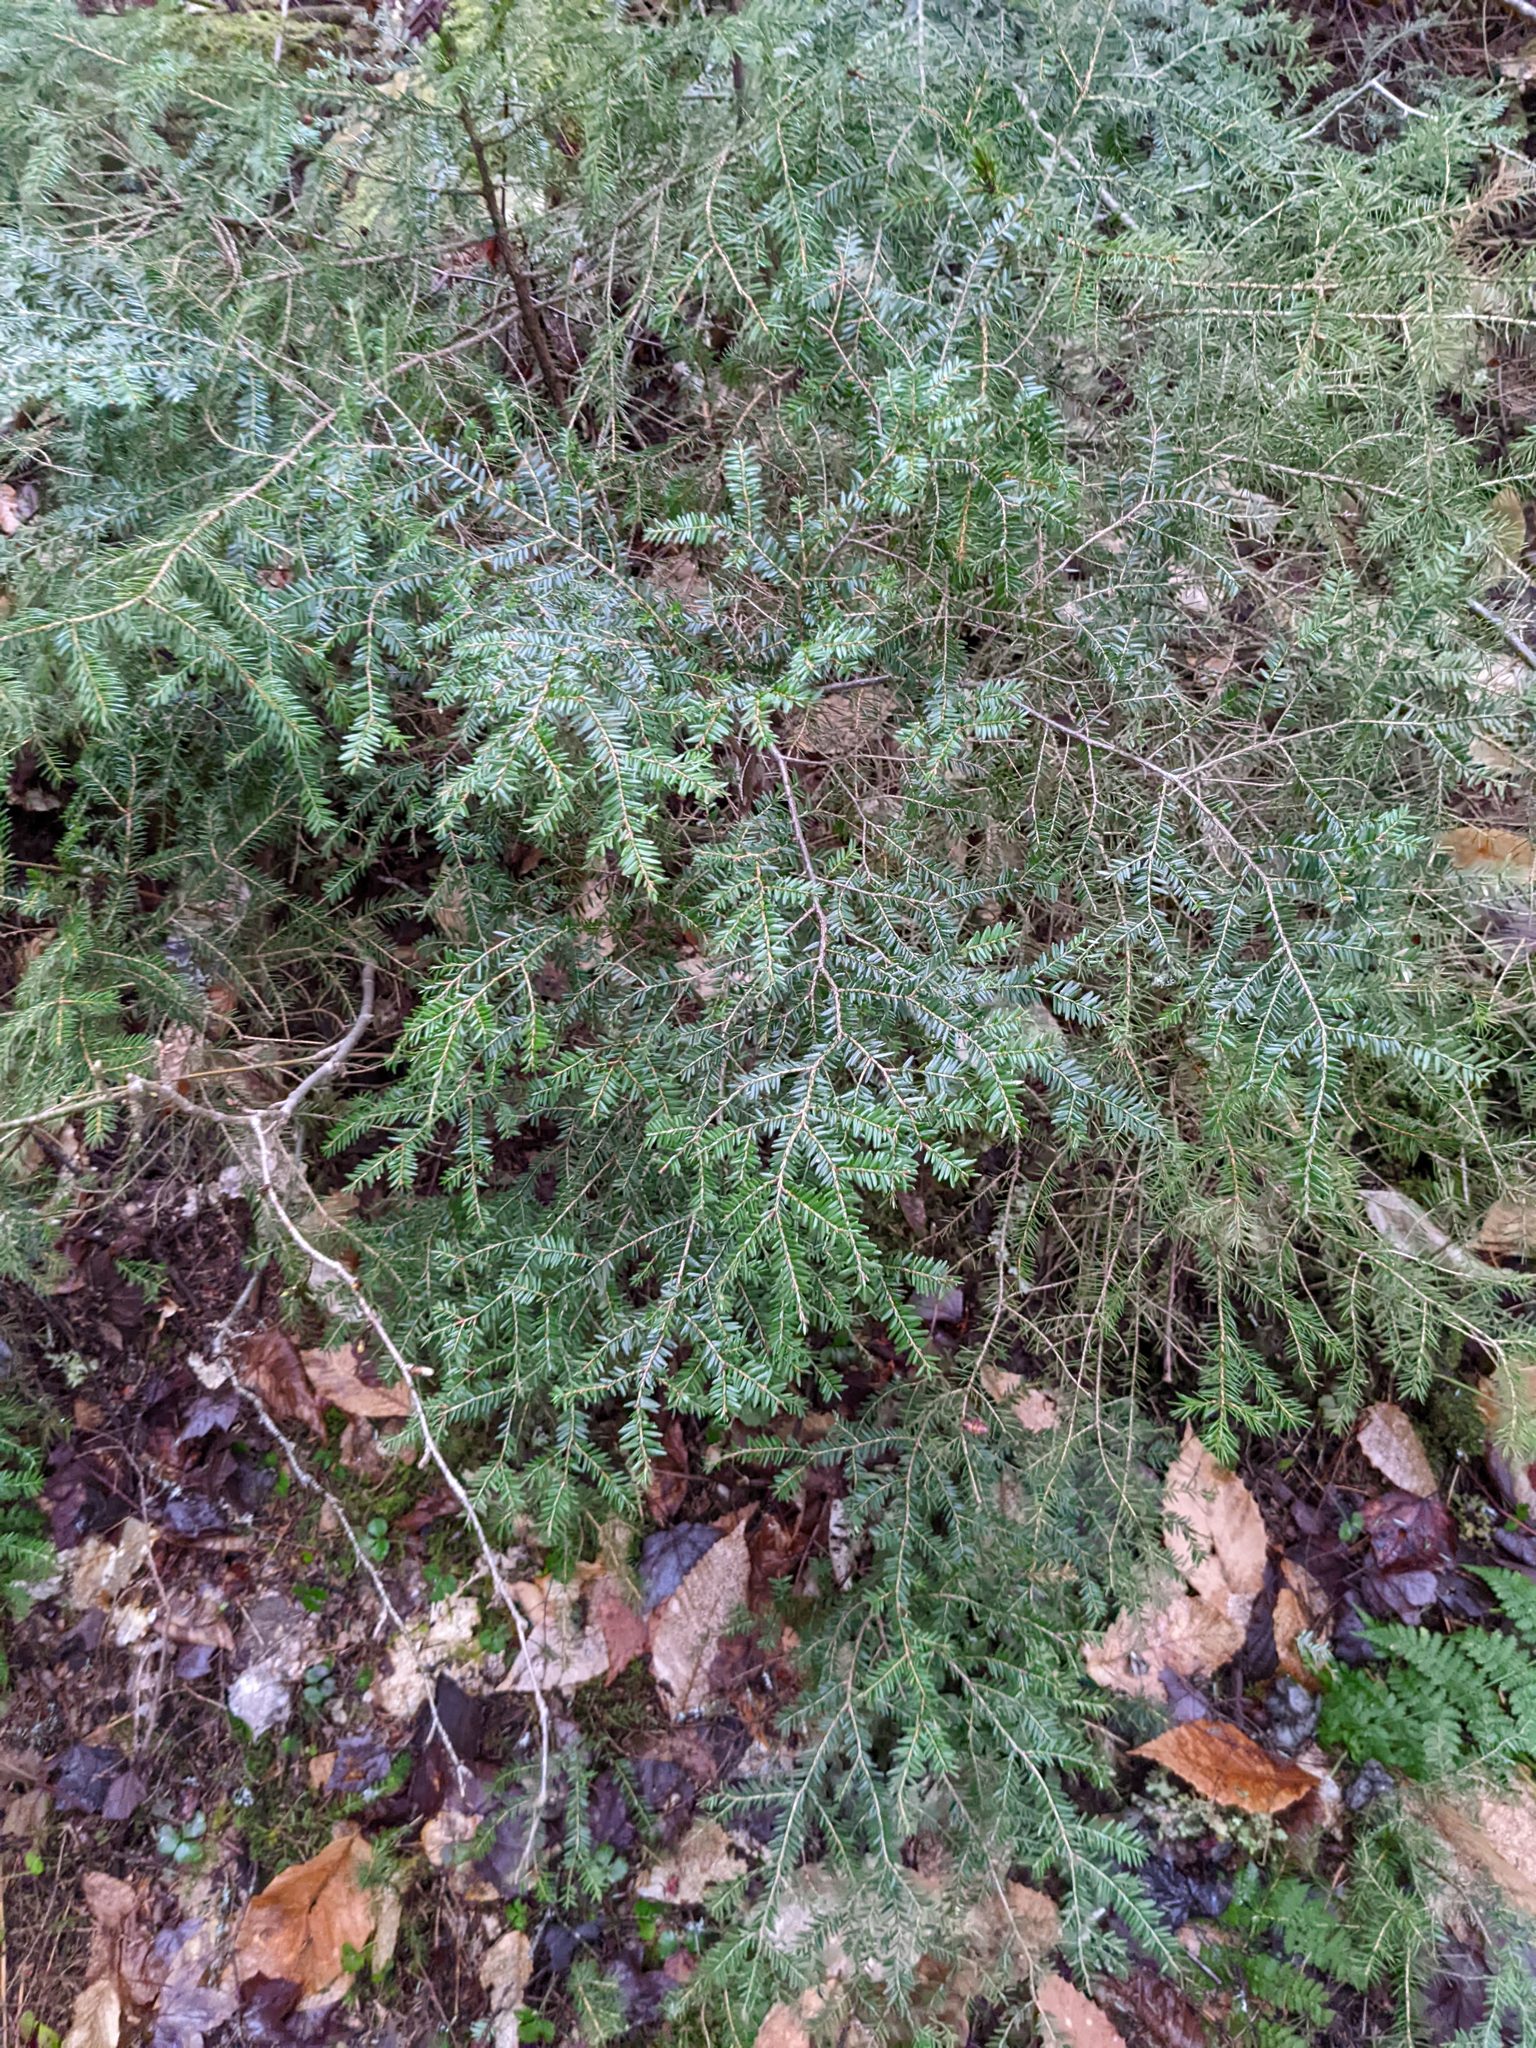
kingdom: Plantae
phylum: Tracheophyta
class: Pinopsida
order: Pinales
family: Pinaceae
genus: Tsuga
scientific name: Tsuga canadensis
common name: Eastern hemlock
